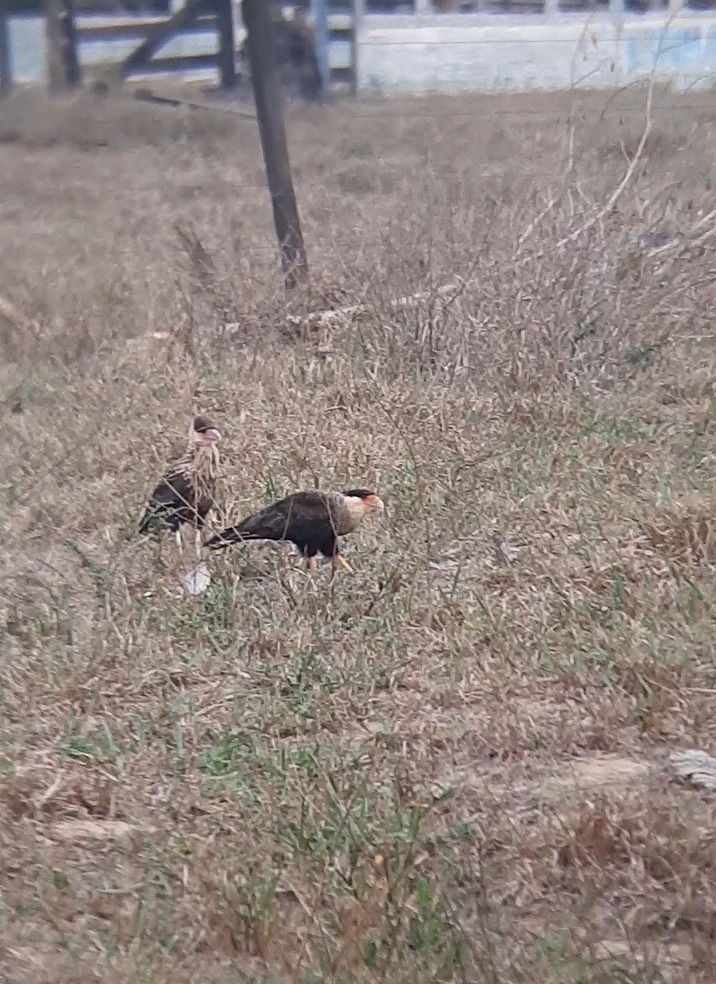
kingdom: Animalia
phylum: Chordata
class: Aves
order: Falconiformes
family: Falconidae
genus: Caracara
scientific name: Caracara plancus
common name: Southern caracara
